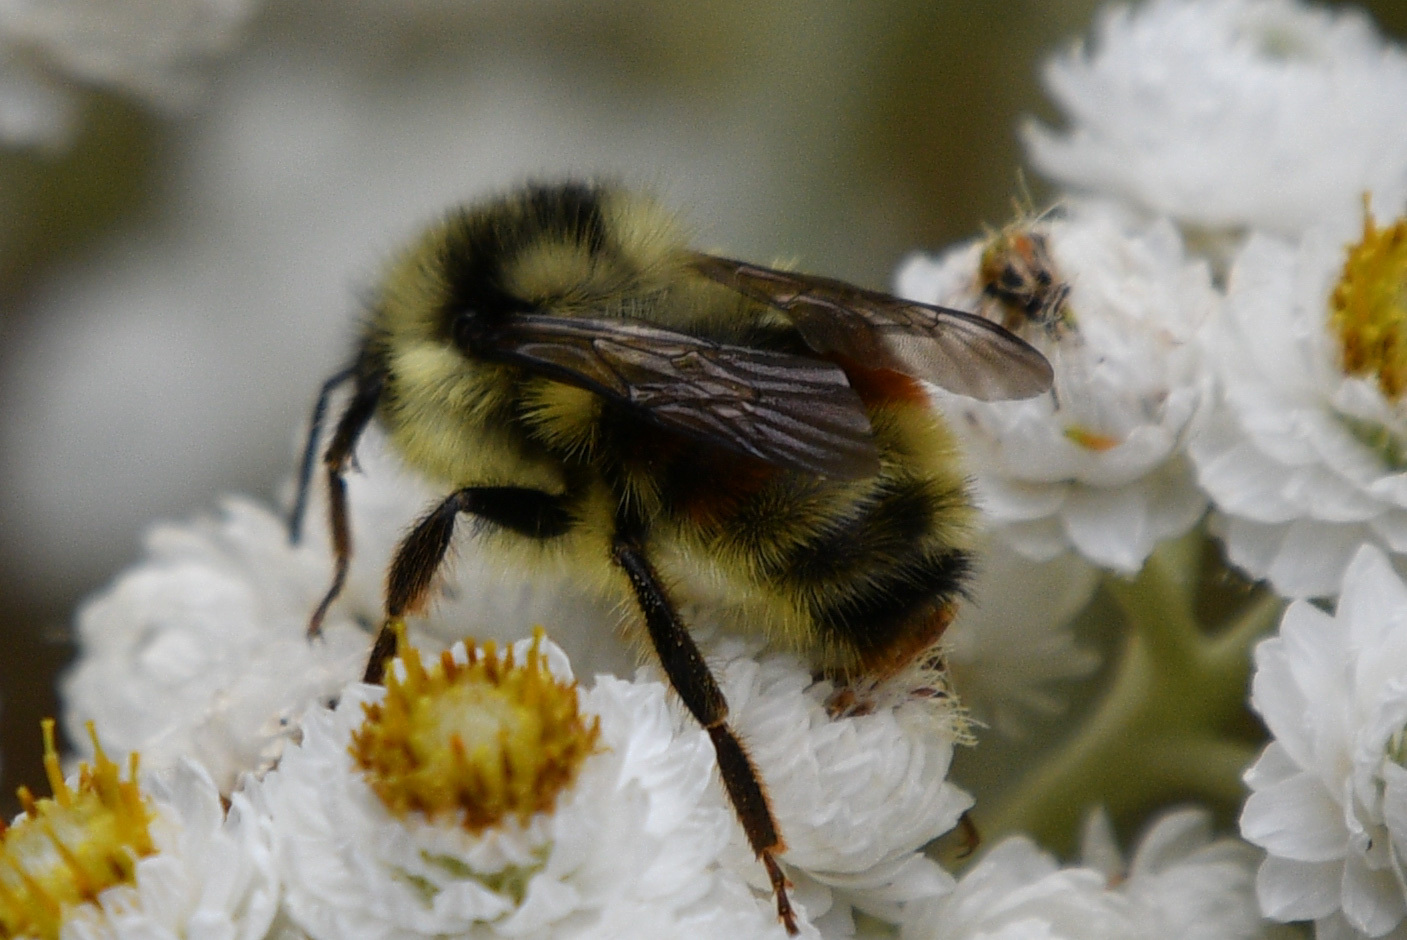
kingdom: Animalia
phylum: Arthropoda
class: Insecta
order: Hymenoptera
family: Apidae
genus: Bombus
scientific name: Bombus vancouverensis
